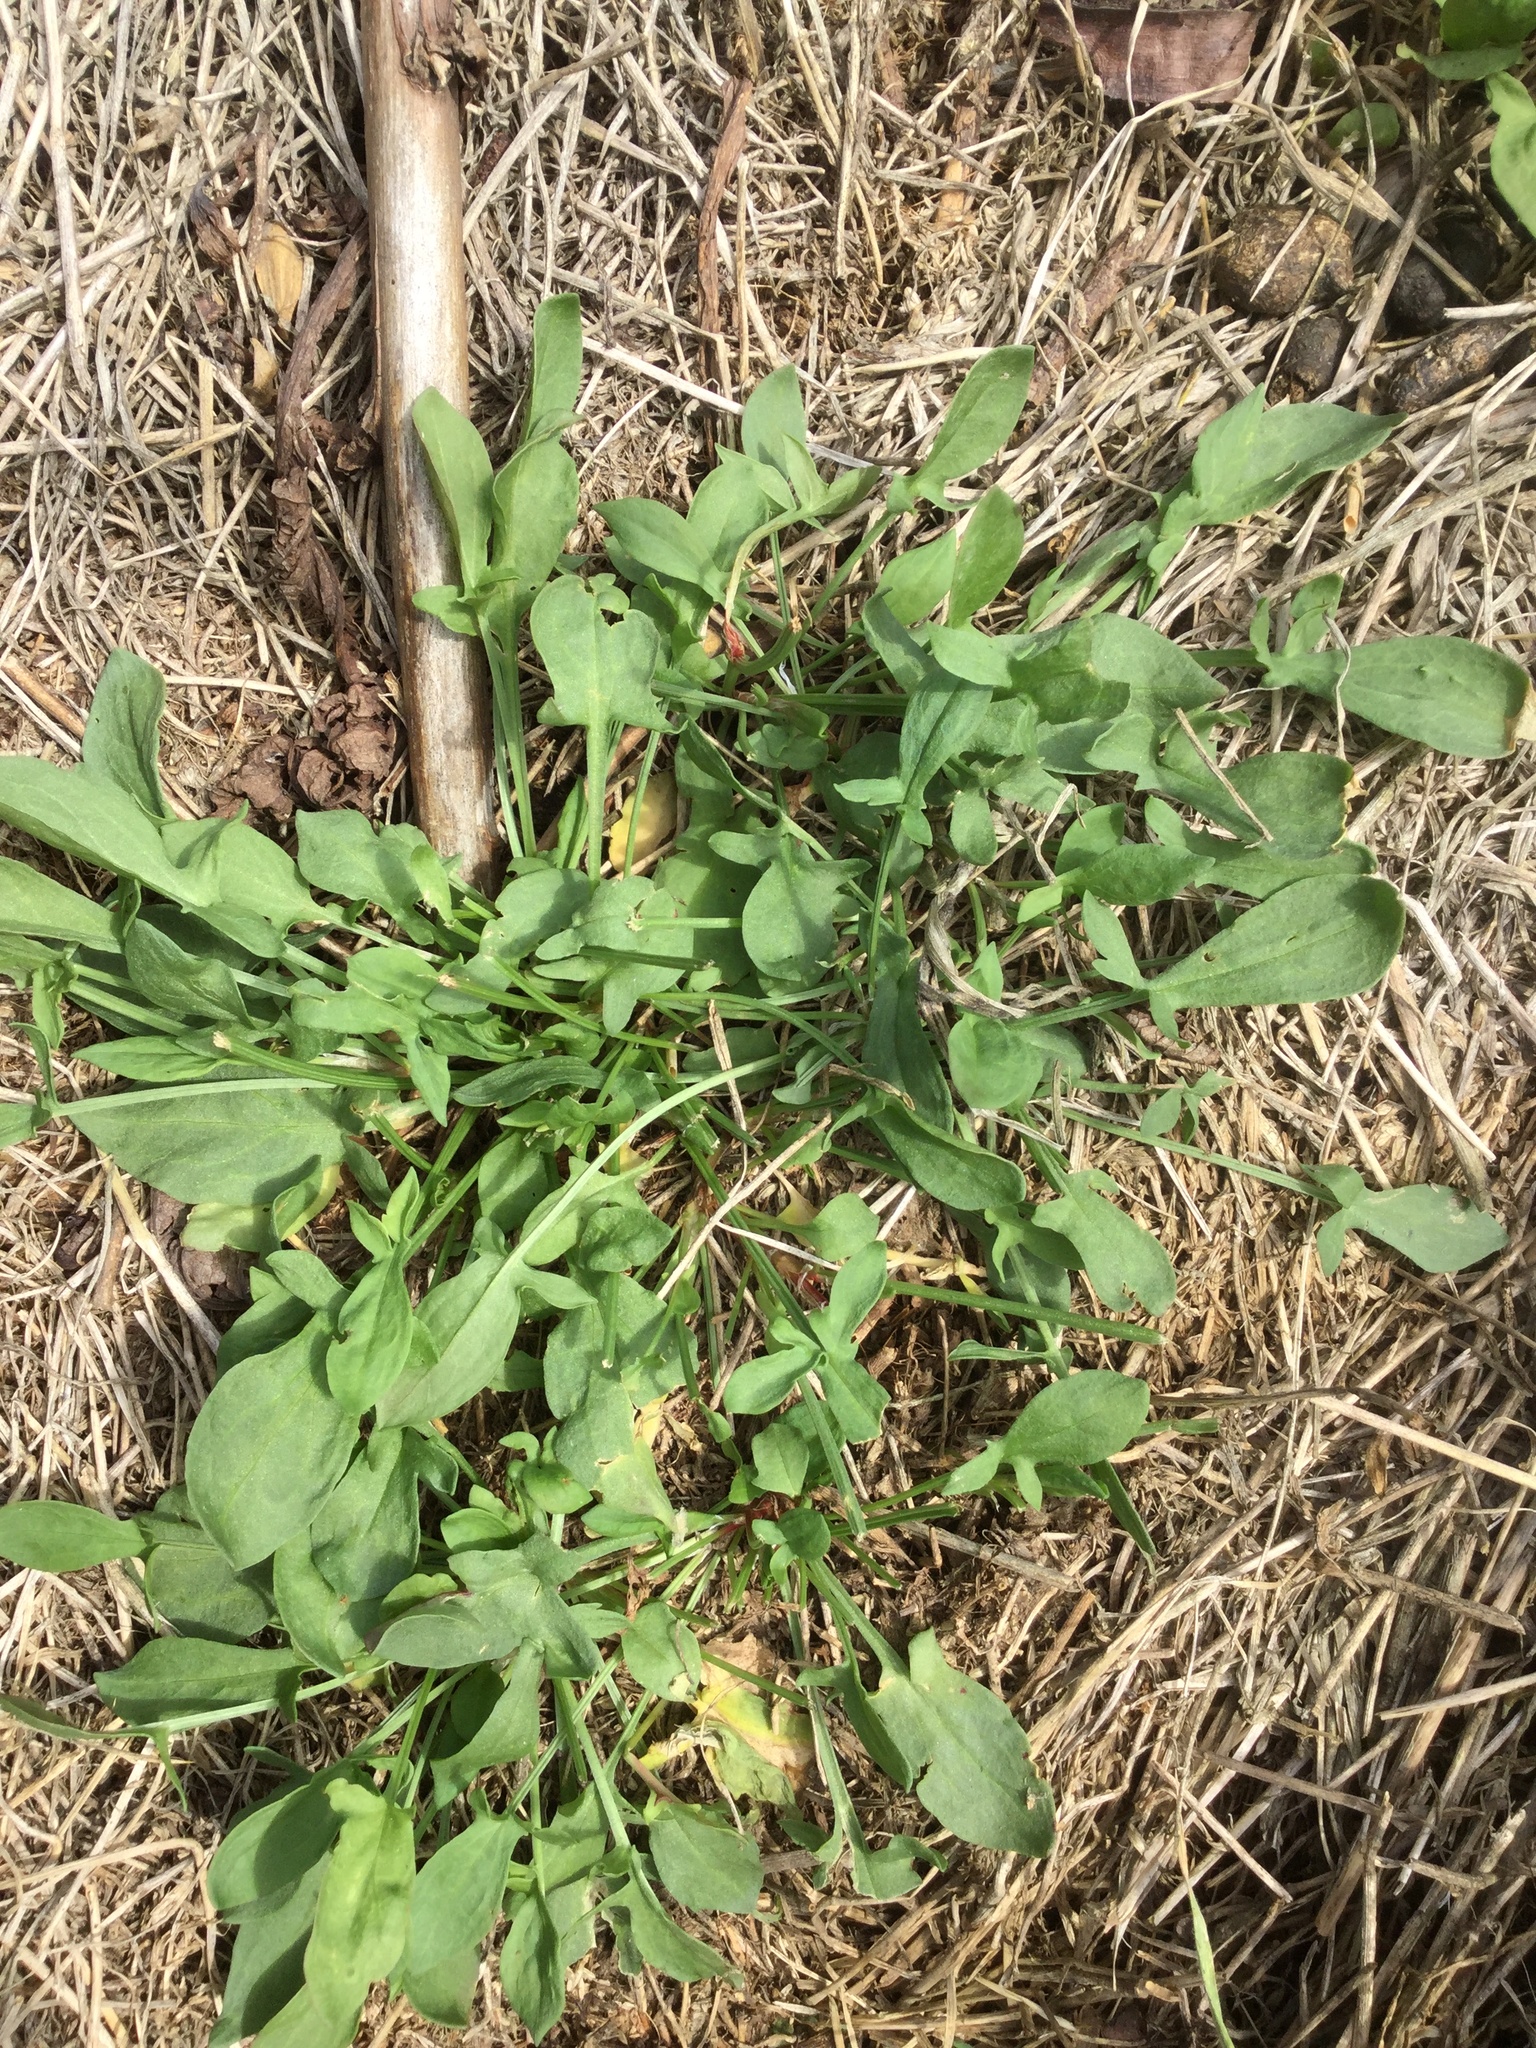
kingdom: Plantae
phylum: Tracheophyta
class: Magnoliopsida
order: Caryophyllales
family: Polygonaceae
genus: Rumex
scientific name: Rumex acetosella
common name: Common sheep sorrel
